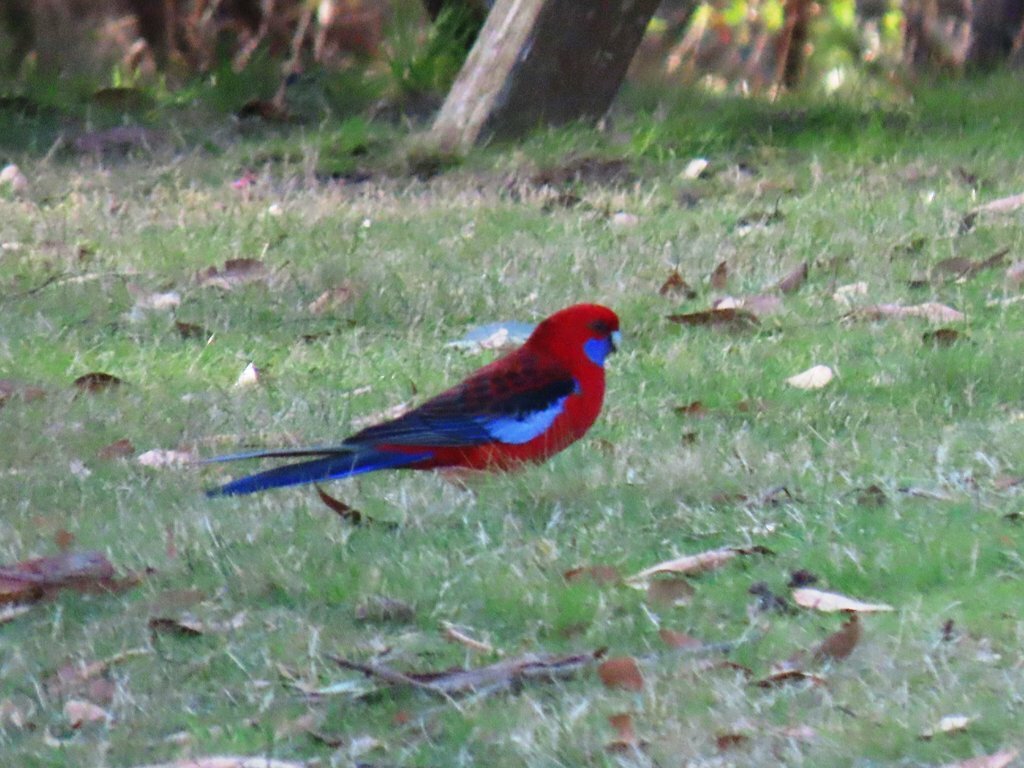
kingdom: Animalia
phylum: Chordata
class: Aves
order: Psittaciformes
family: Psittacidae
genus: Platycercus
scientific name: Platycercus elegans
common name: Crimson rosella
